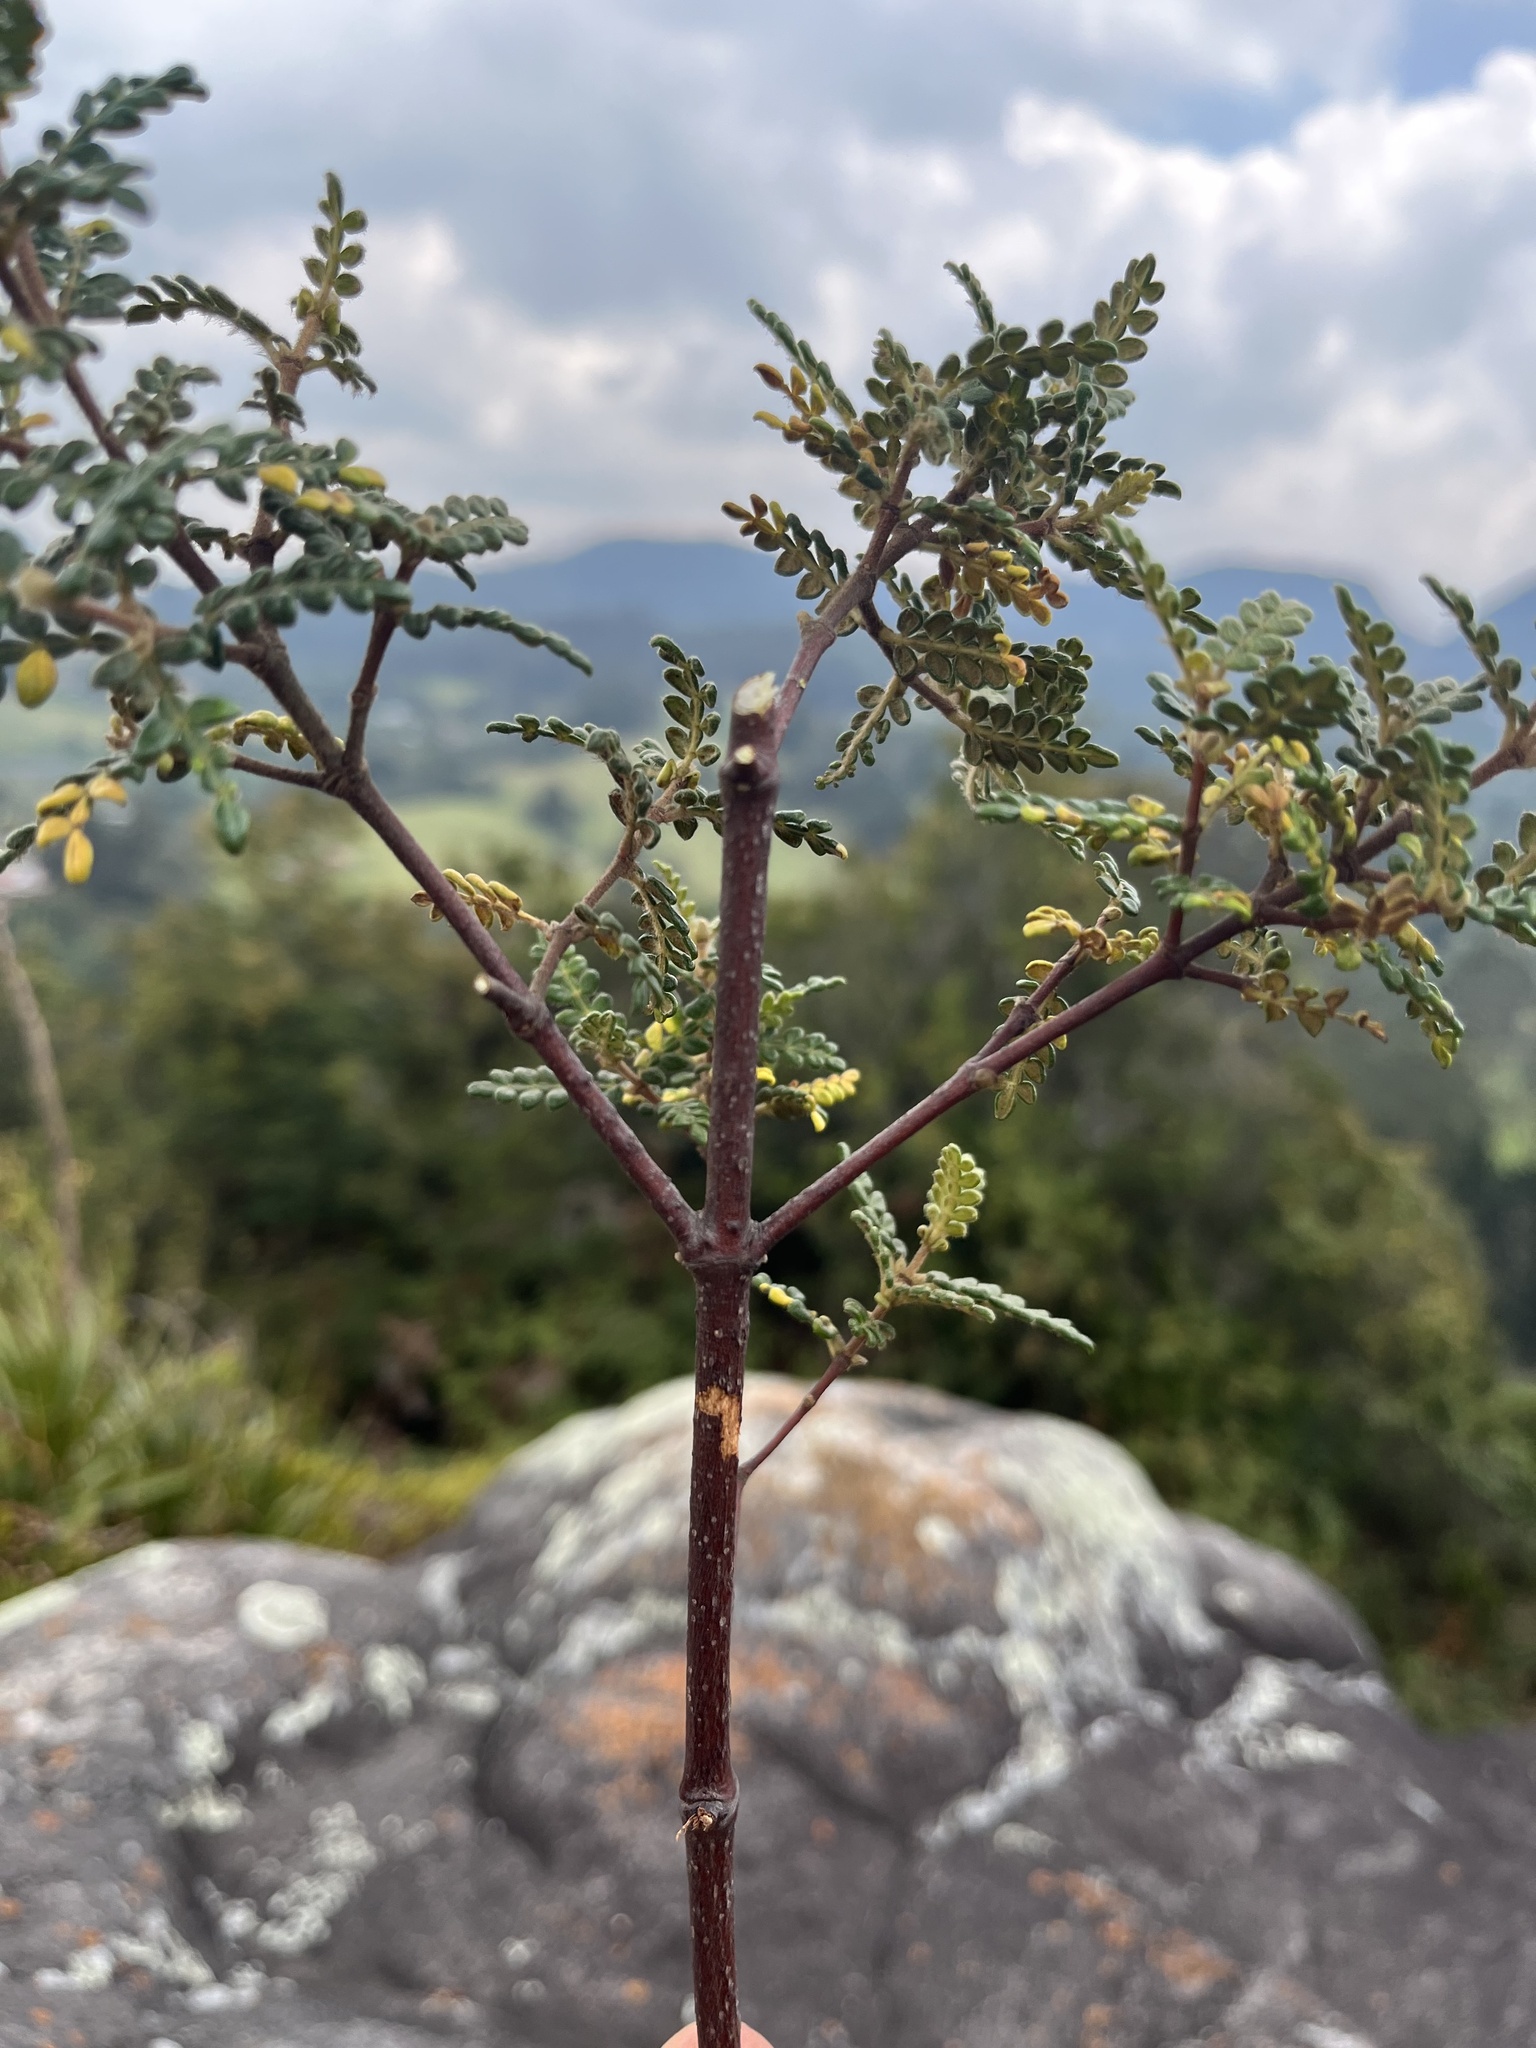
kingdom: Plantae
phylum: Tracheophyta
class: Magnoliopsida
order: Oxalidales
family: Cunoniaceae
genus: Weinmannia
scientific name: Weinmannia tomentosa
